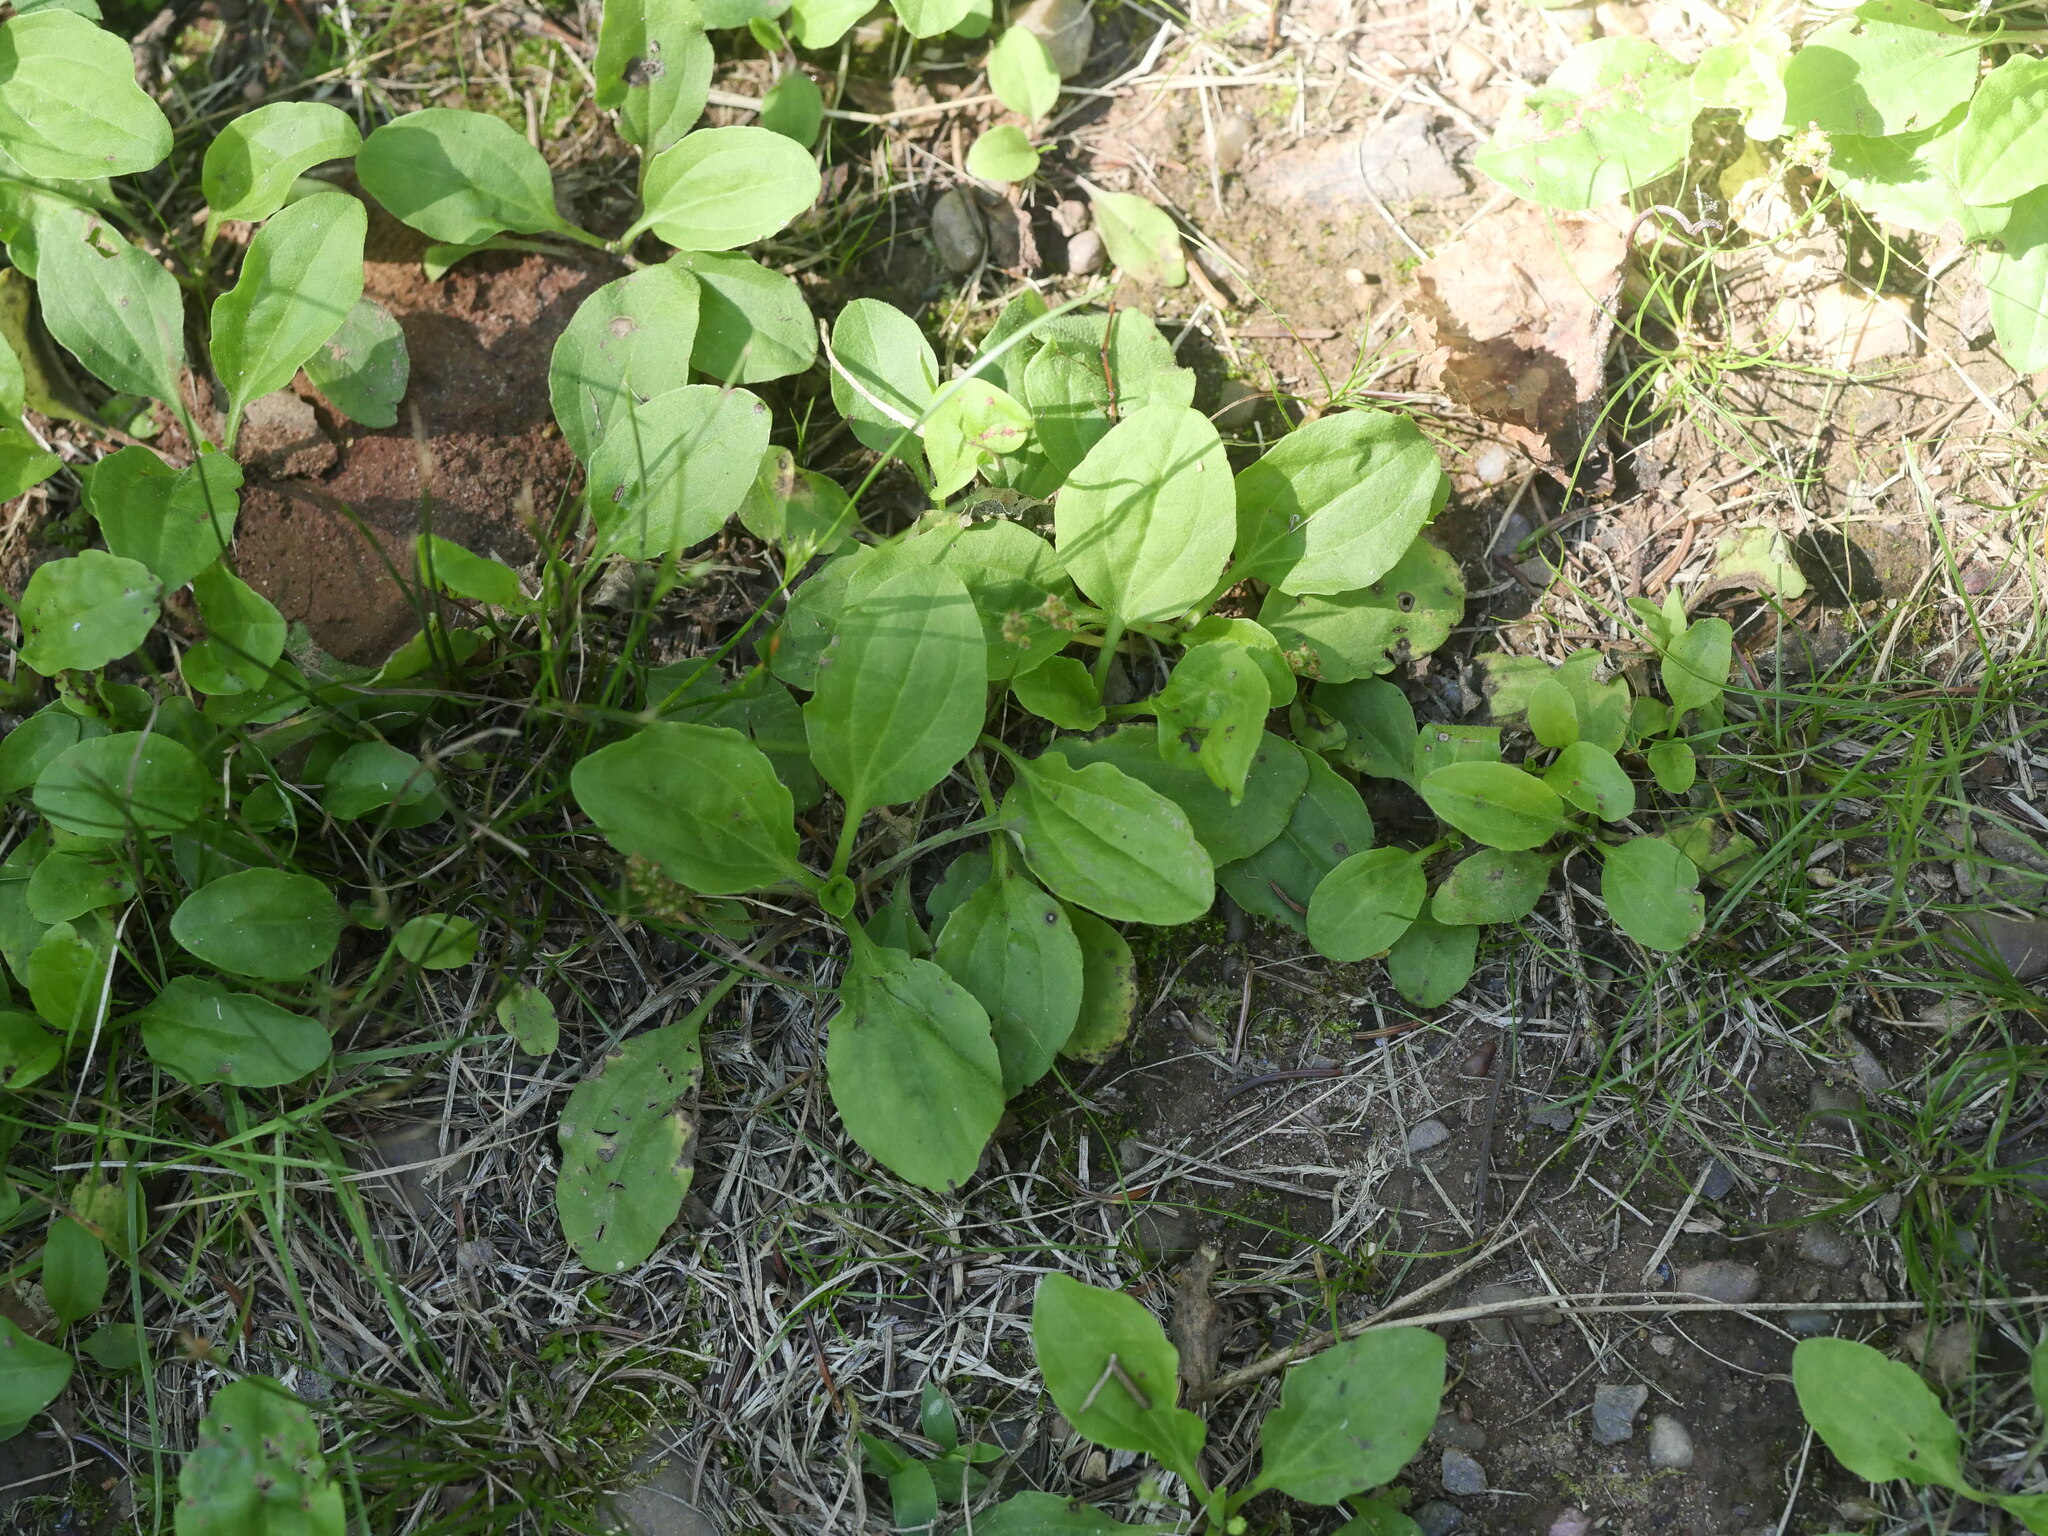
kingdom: Plantae
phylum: Tracheophyta
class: Magnoliopsida
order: Lamiales
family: Plantaginaceae
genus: Plantago
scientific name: Plantago major
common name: Common plantain
